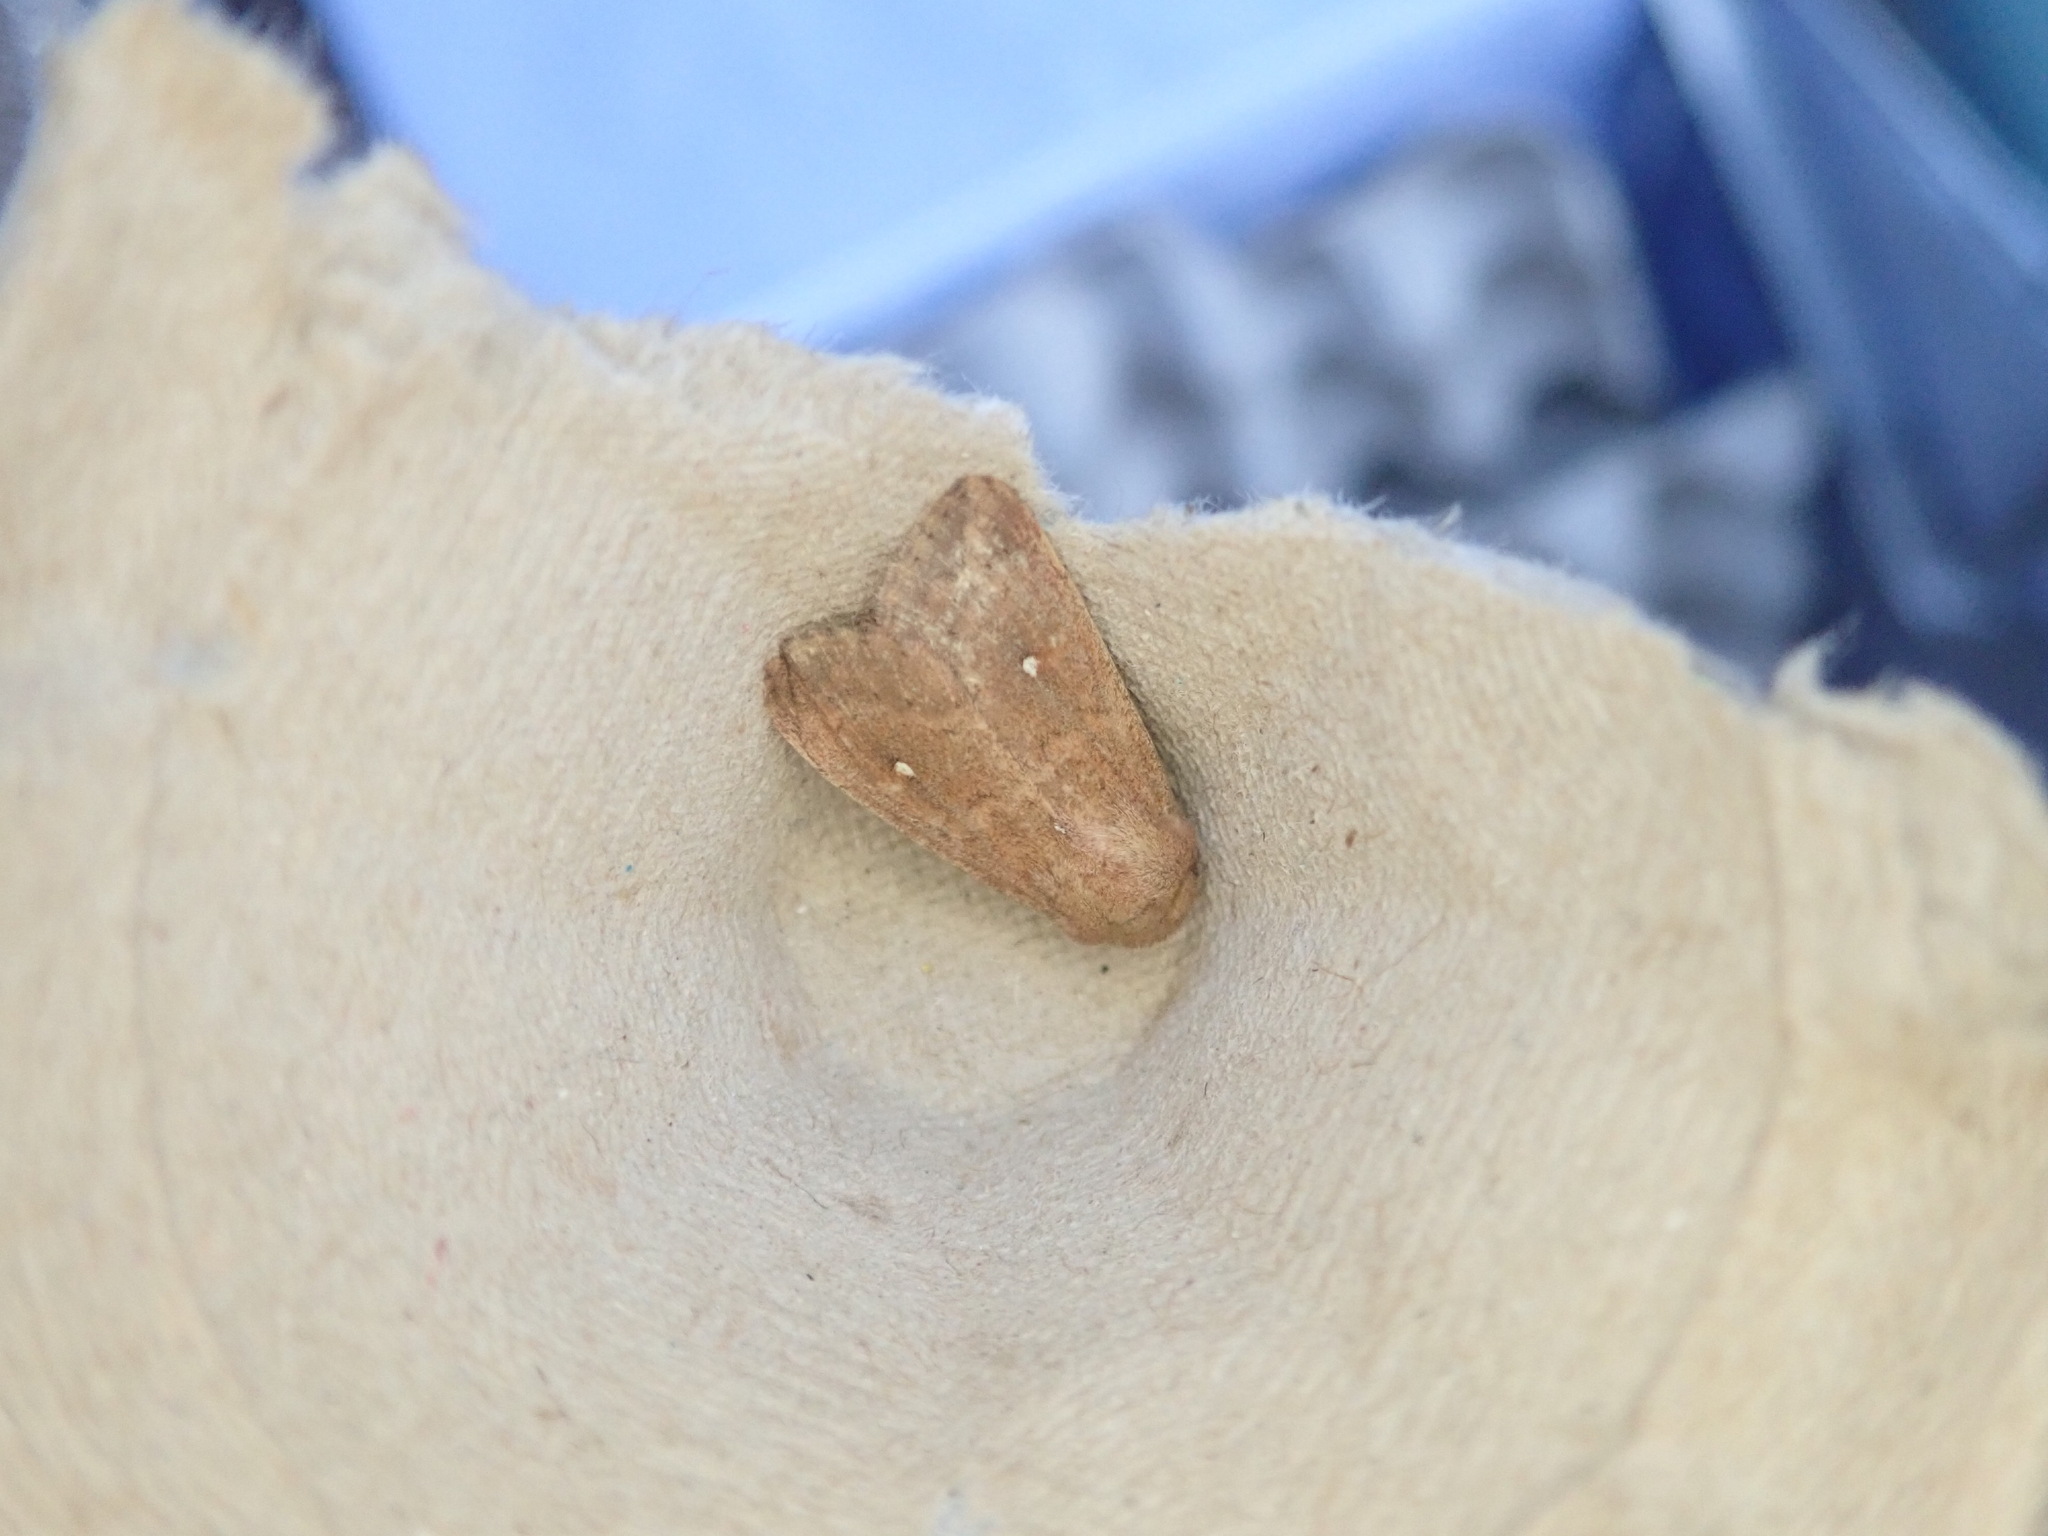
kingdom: Animalia
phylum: Arthropoda
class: Insecta
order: Lepidoptera
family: Noctuidae
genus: Mythimna
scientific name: Mythimna albipuncta
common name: White-point
